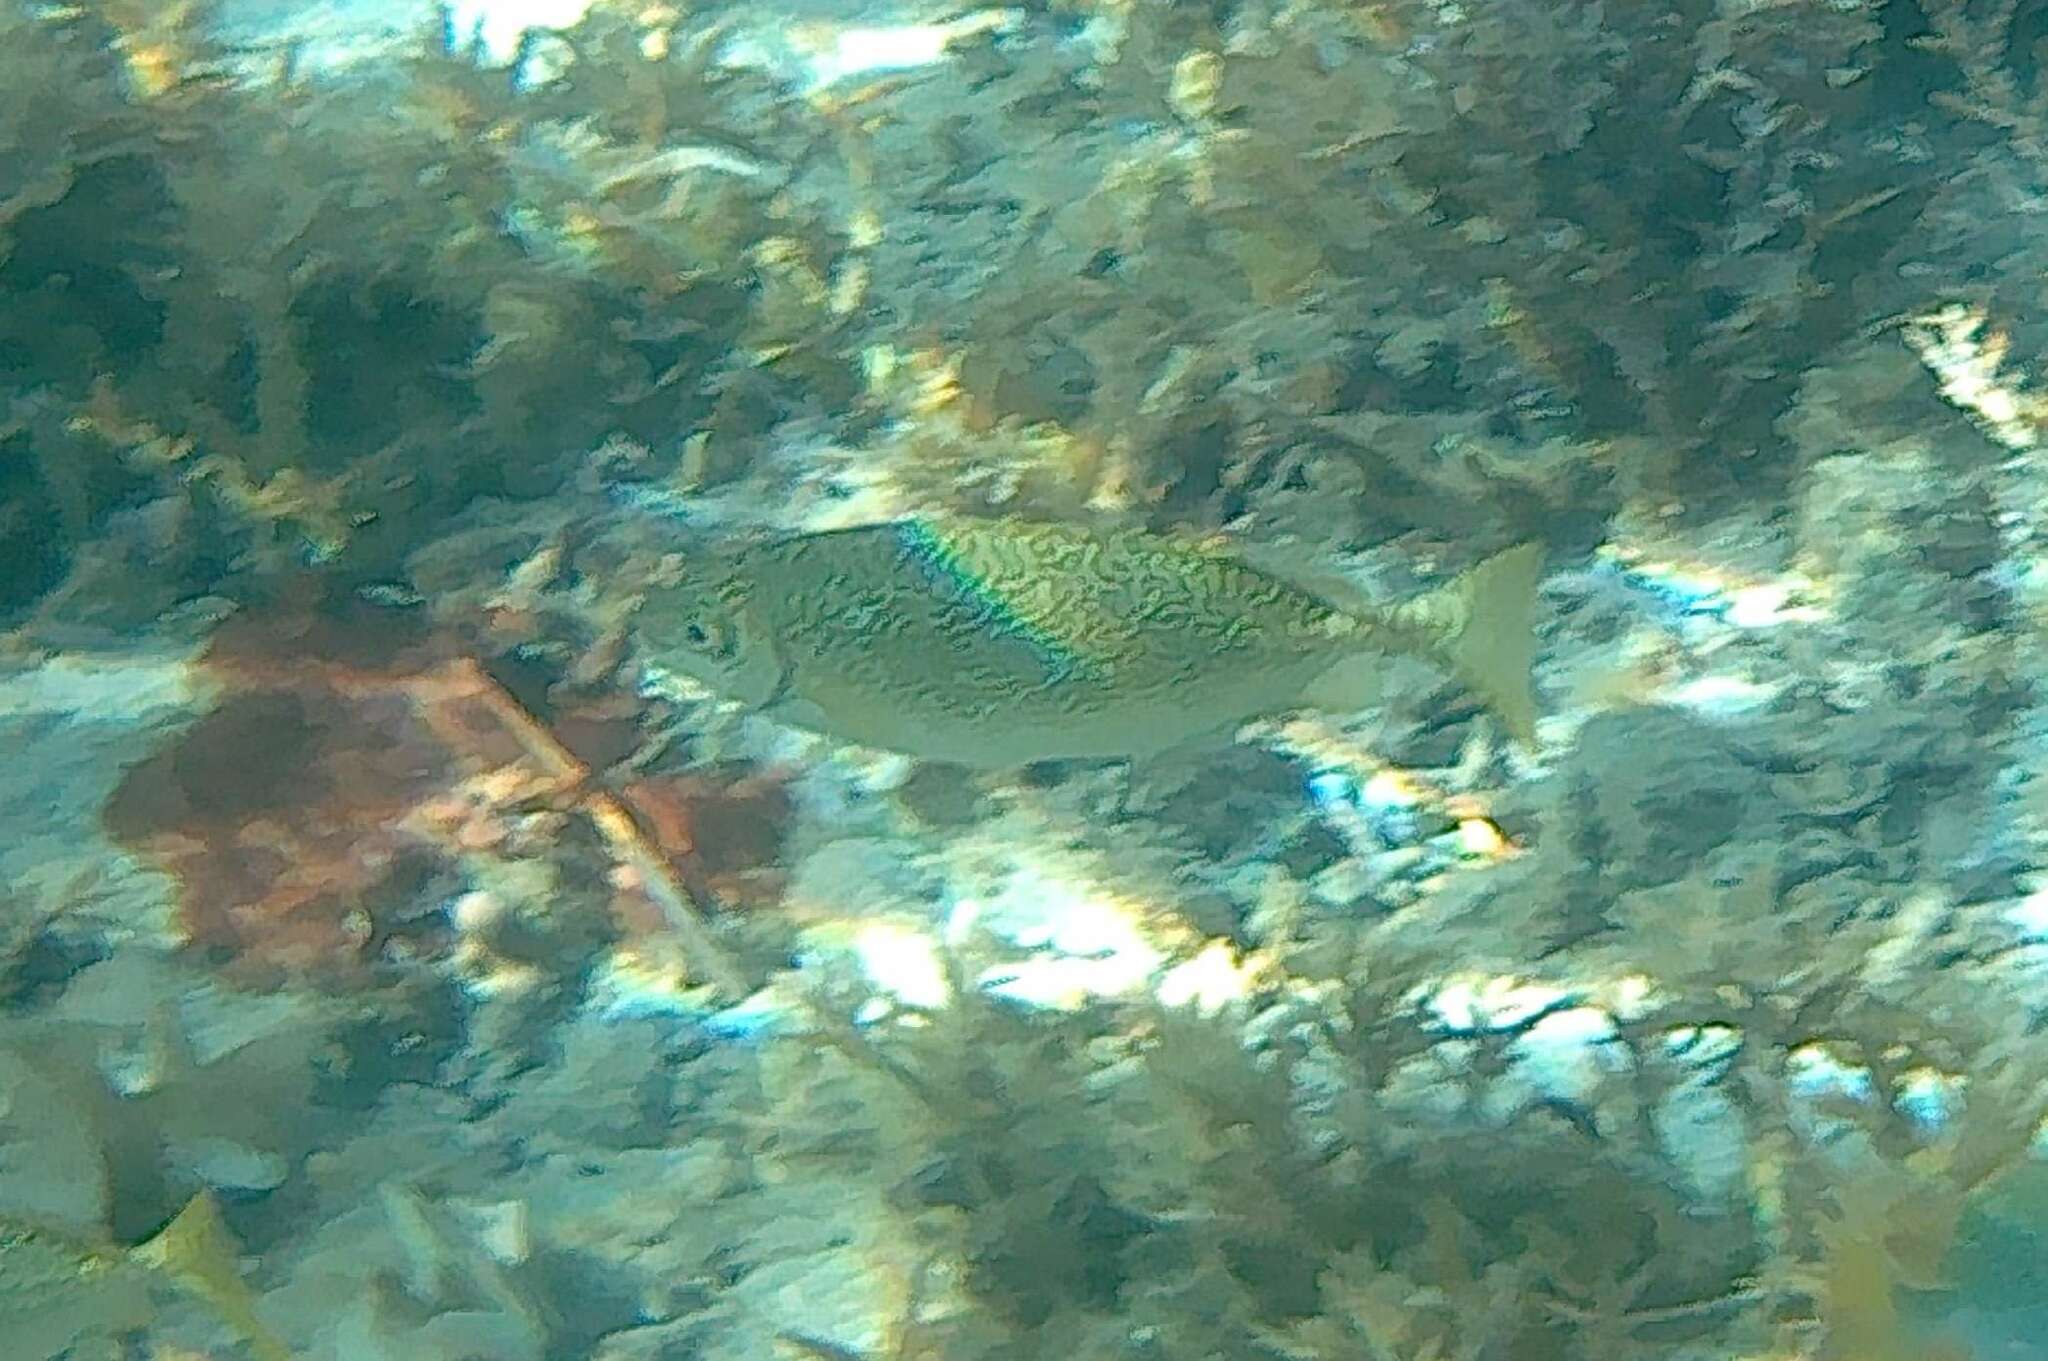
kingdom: Animalia
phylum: Chordata
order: Perciformes
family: Siganidae
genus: Siganus
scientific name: Siganus spinus
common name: Scribbled rabbitfish
